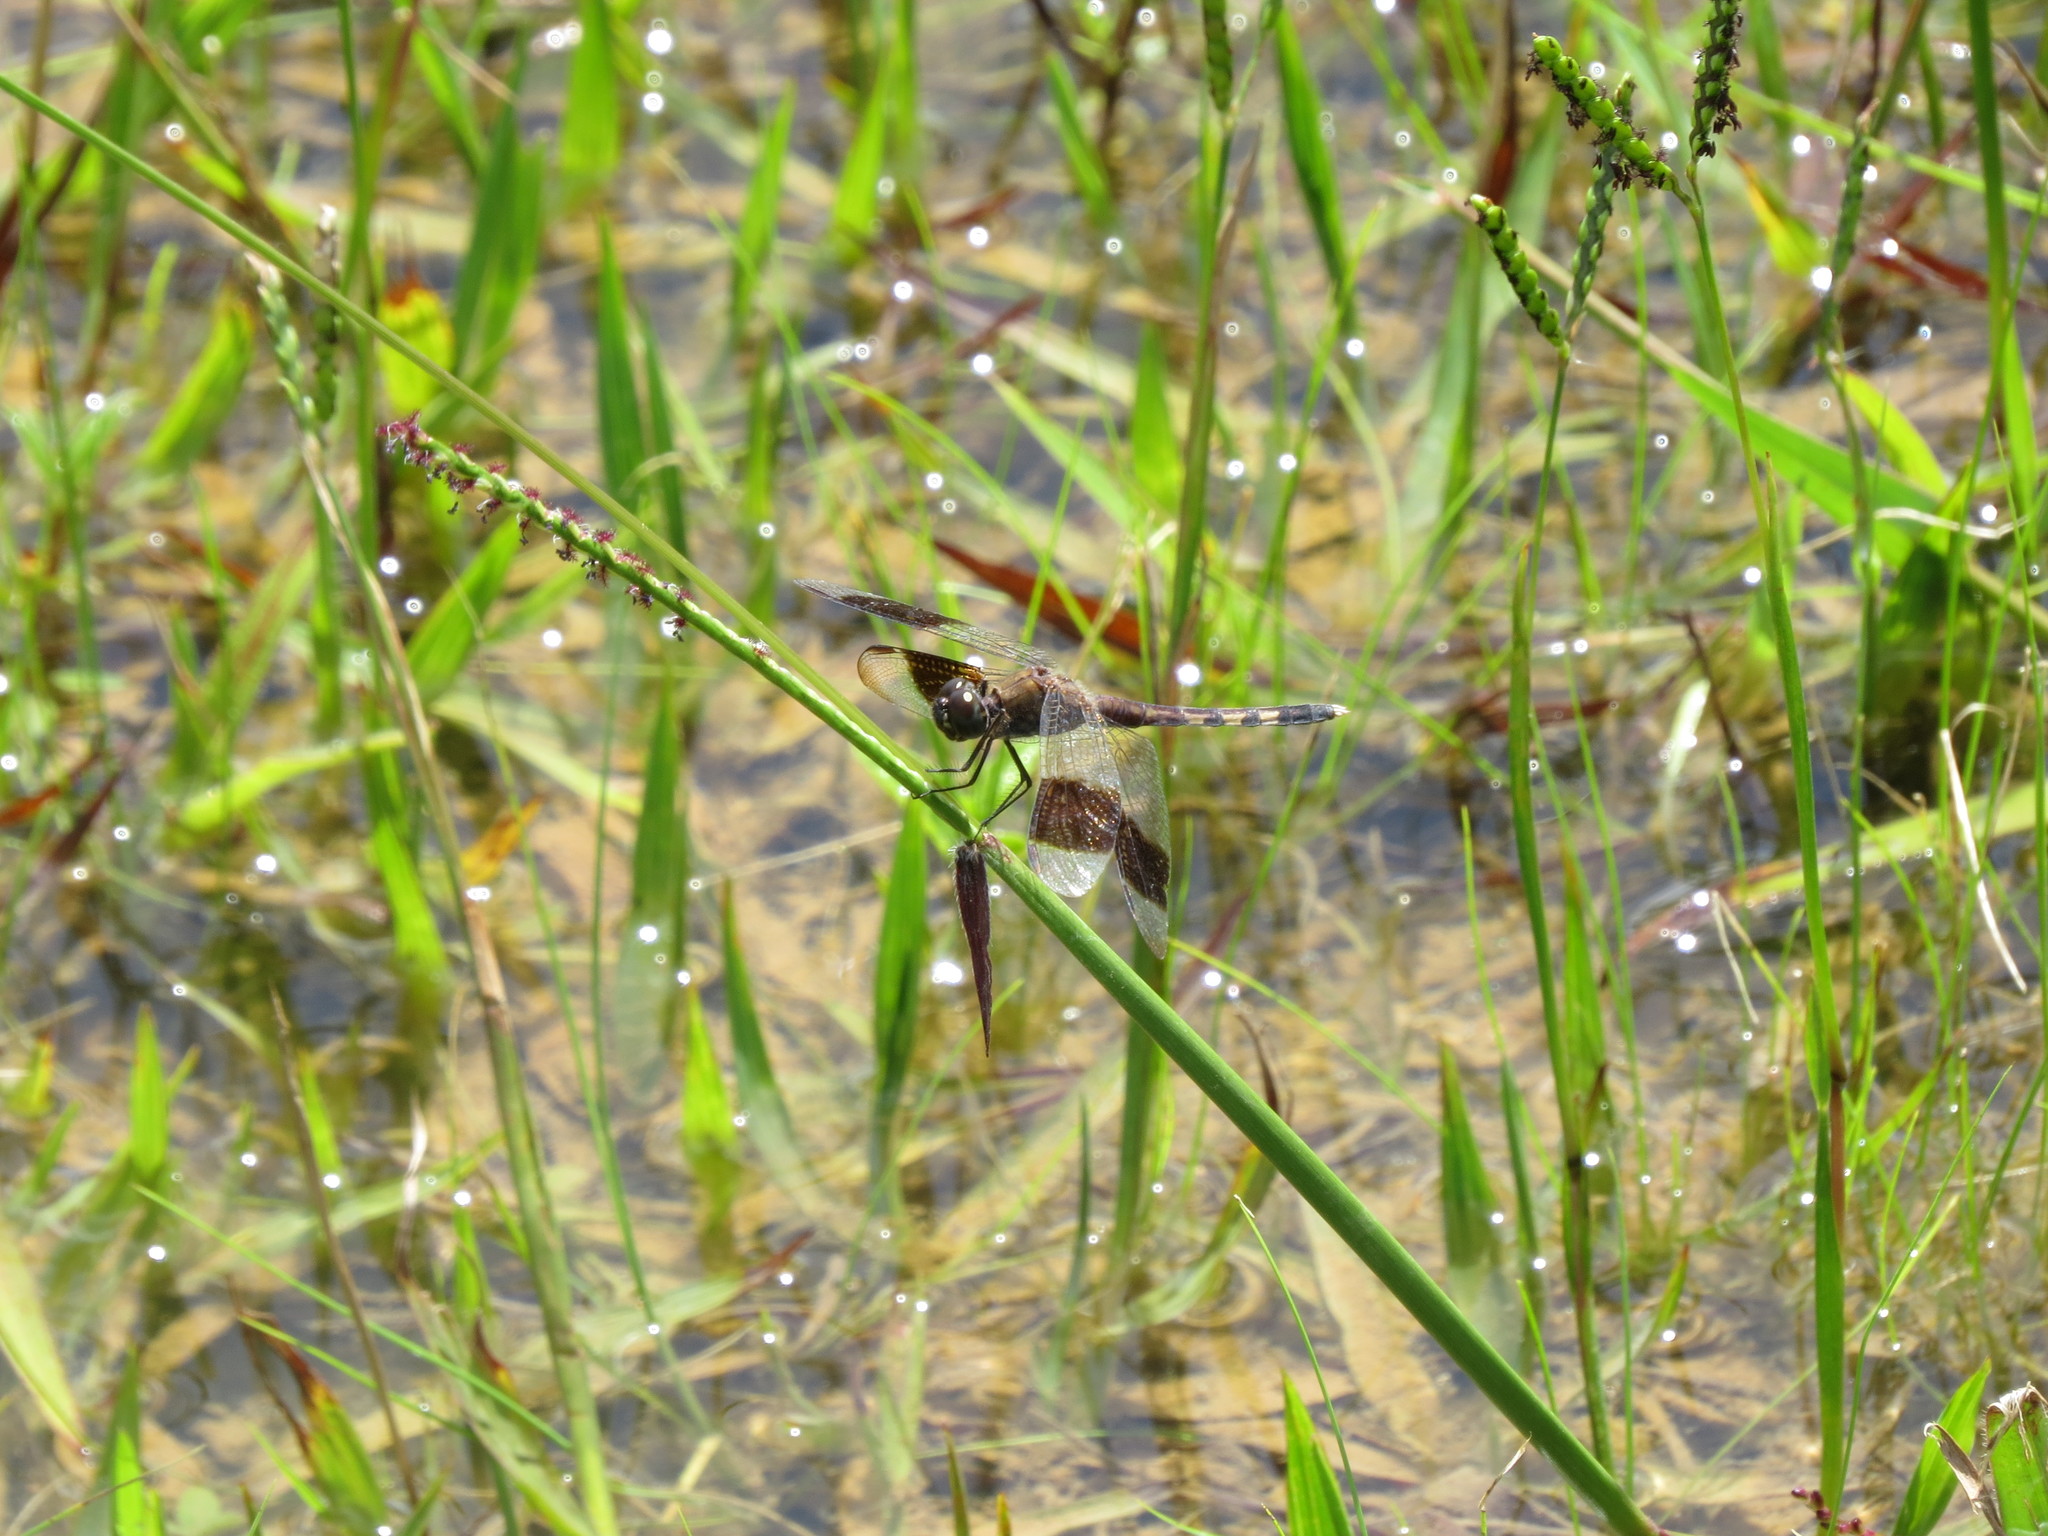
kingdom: Animalia
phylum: Arthropoda
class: Insecta
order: Odonata
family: Libellulidae
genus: Erythrodiplax
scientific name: Erythrodiplax umbrata
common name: Band-winged dragonlet
